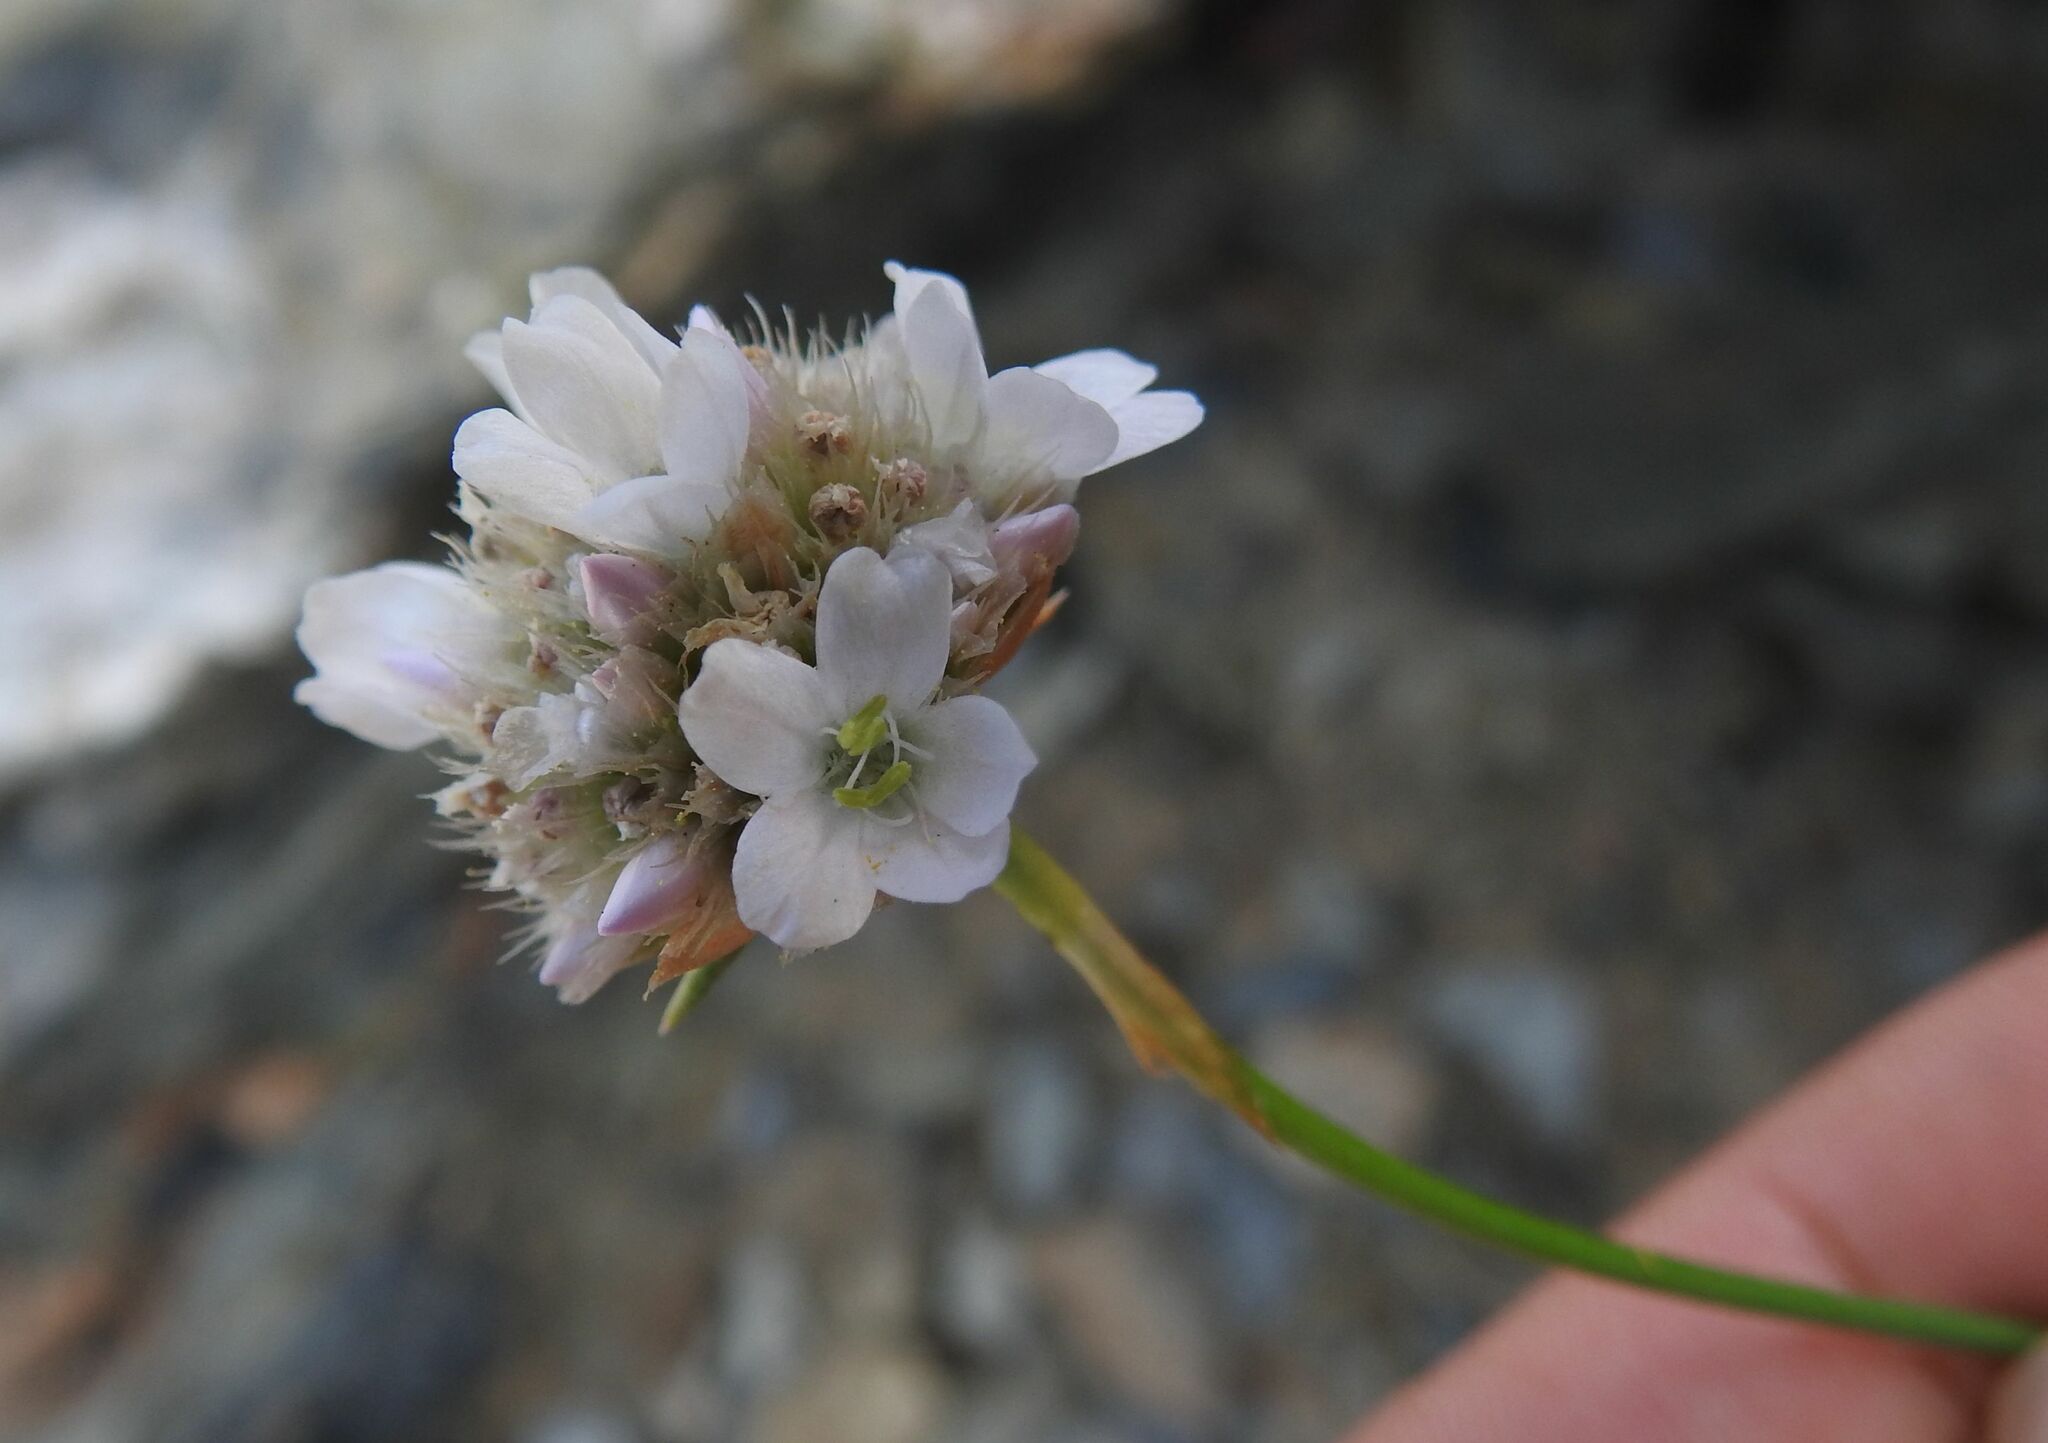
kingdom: Plantae
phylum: Tracheophyta
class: Magnoliopsida
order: Caryophyllales
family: Plumbaginaceae
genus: Armeria
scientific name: Armeria ruscinonensis
